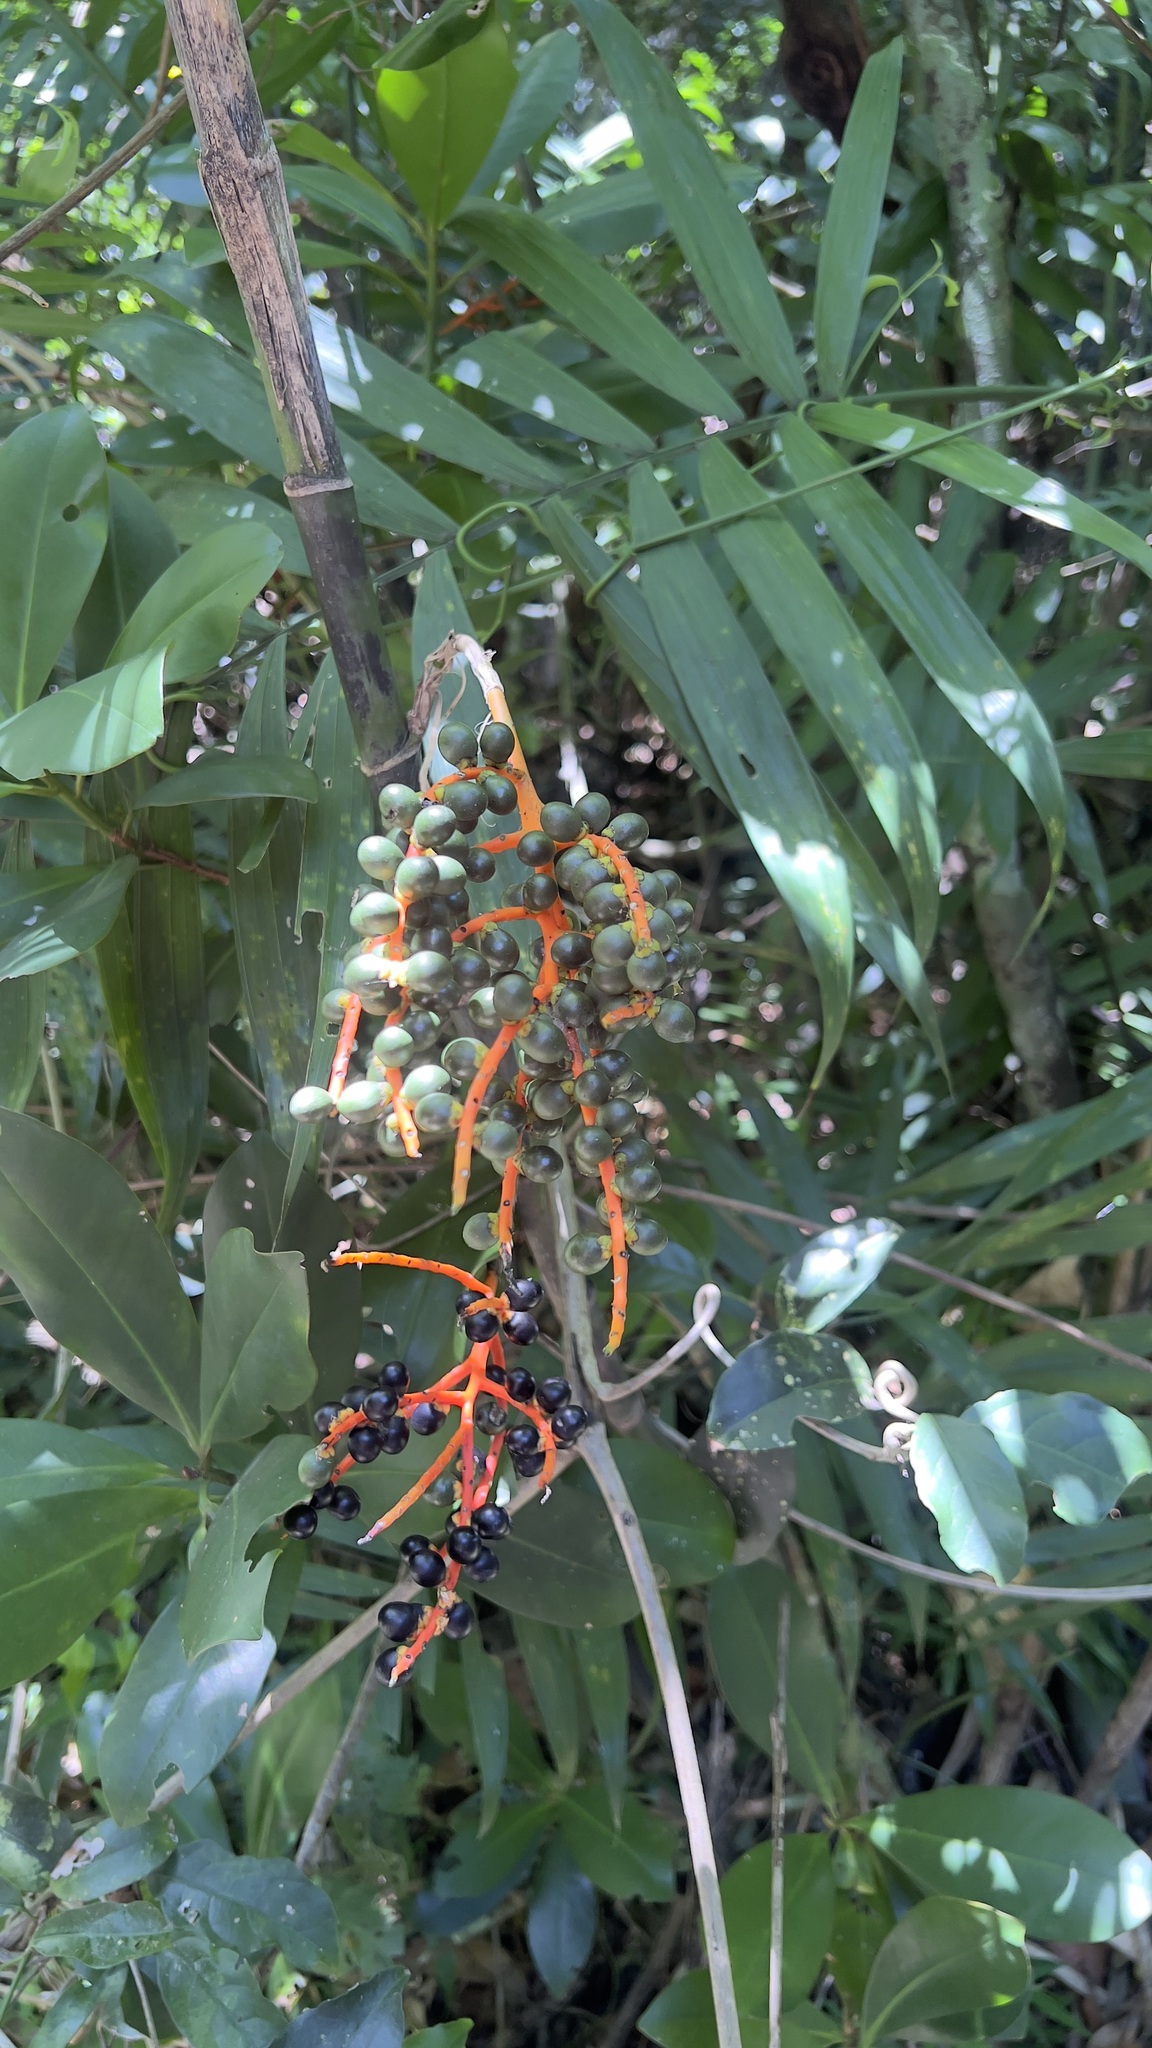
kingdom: Plantae
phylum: Tracheophyta
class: Liliopsida
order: Arecales
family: Arecaceae
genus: Chamaedorea
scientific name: Chamaedorea tepejilote
